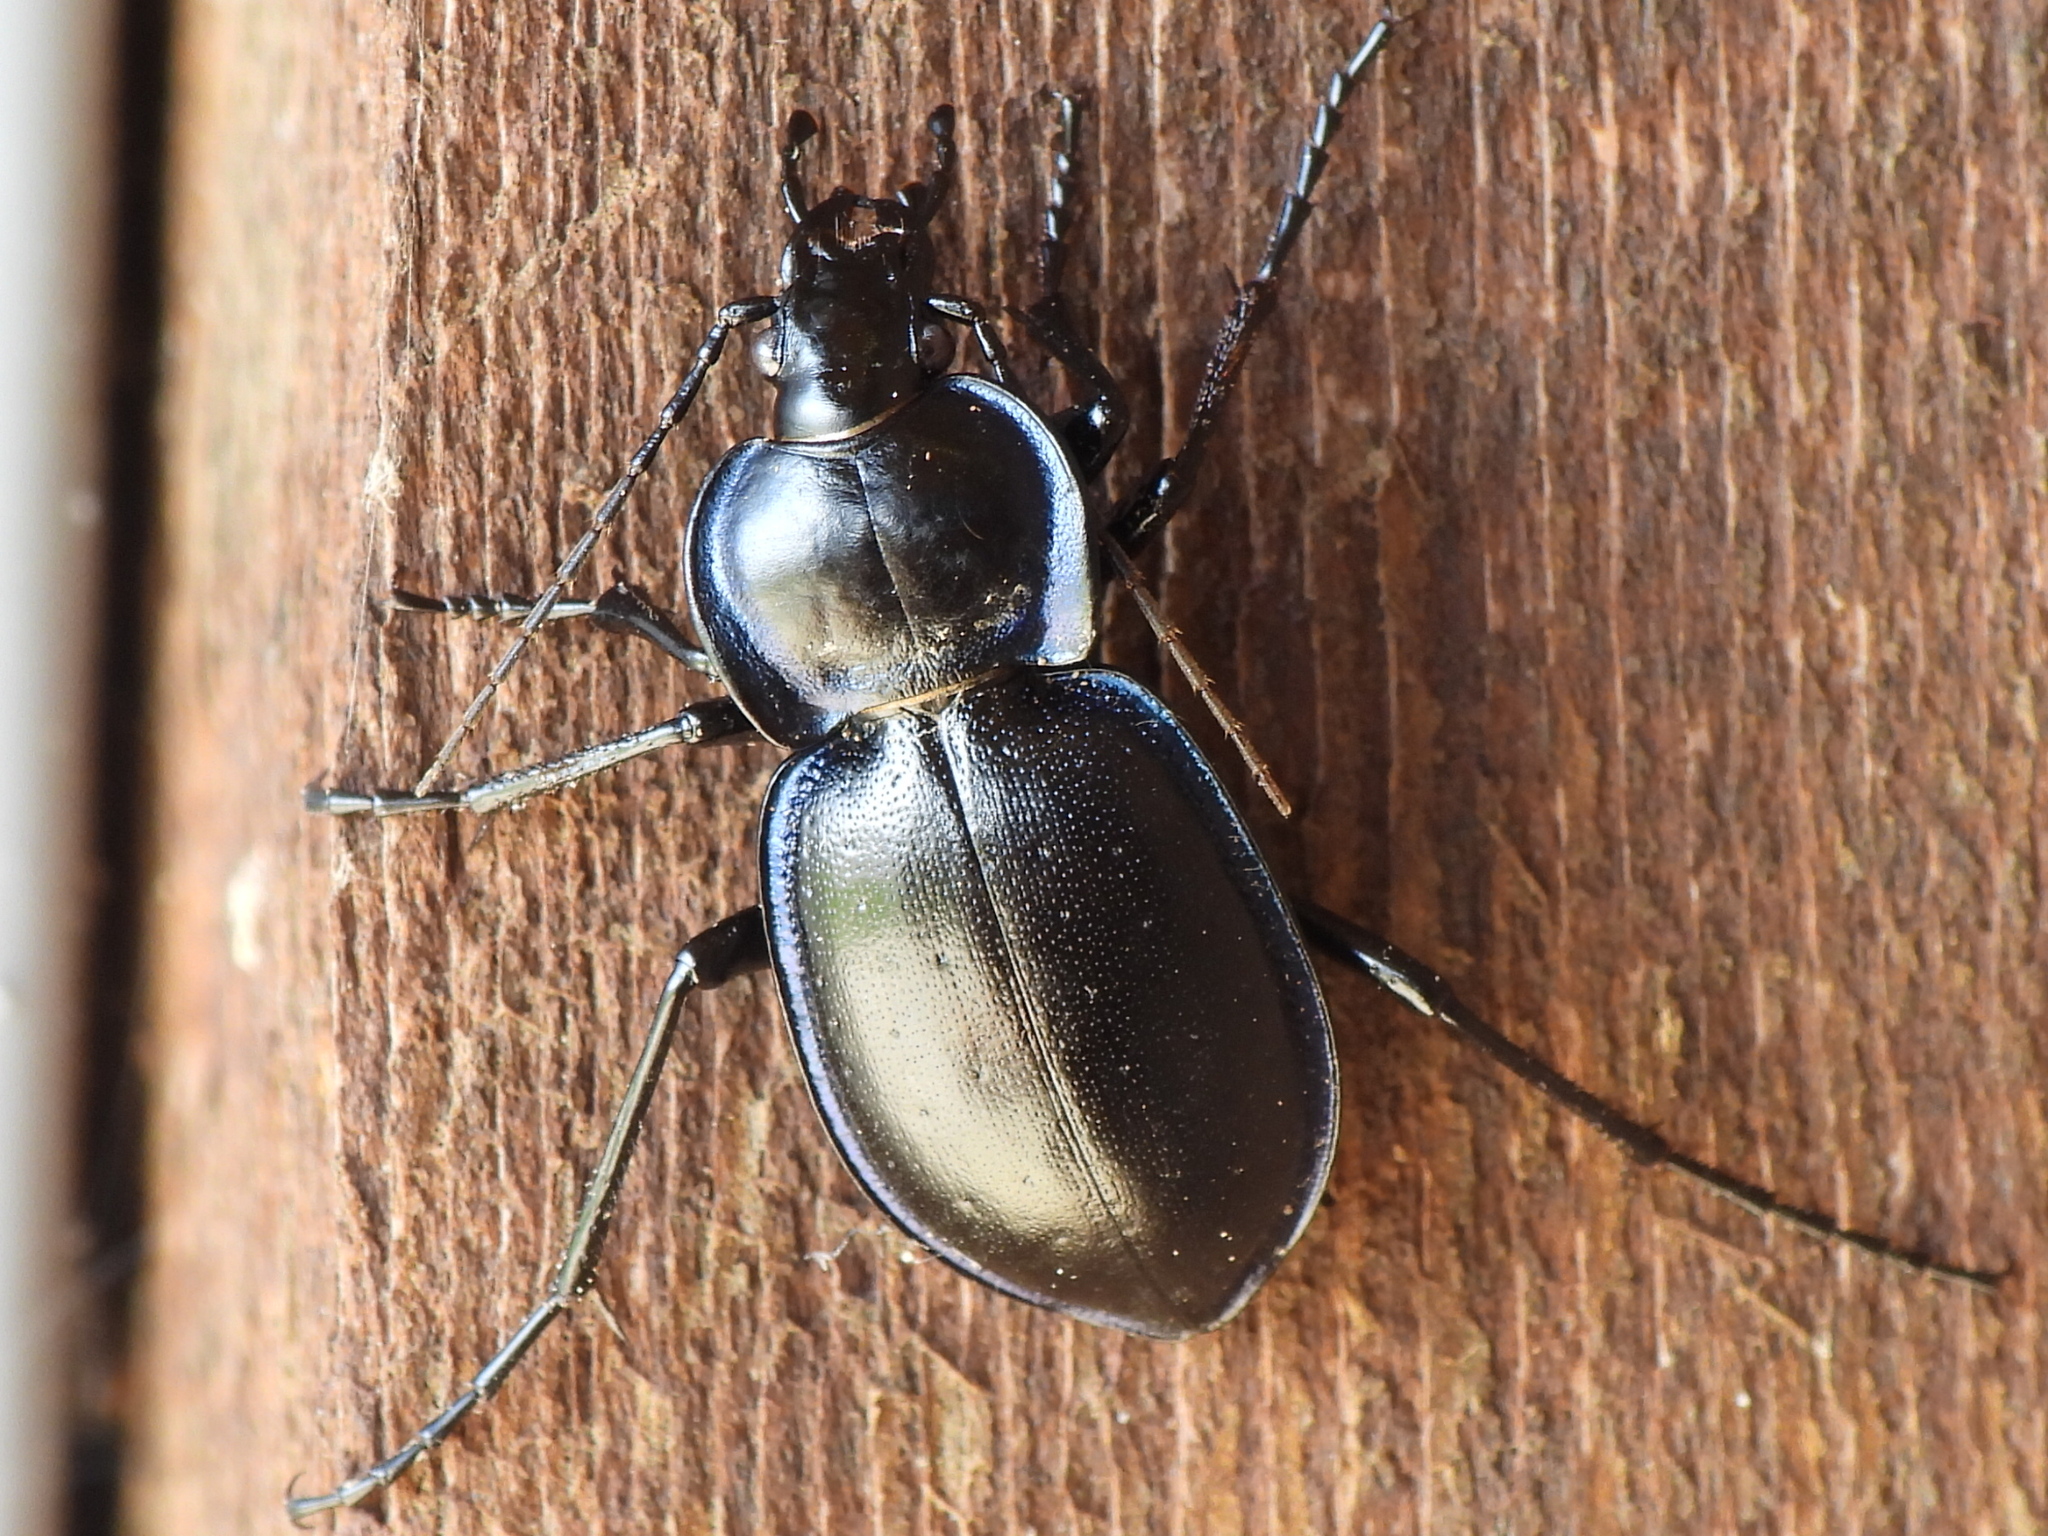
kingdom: Animalia
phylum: Arthropoda
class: Insecta
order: Coleoptera
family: Carabidae
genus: Carabus
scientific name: Carabus finitimus
